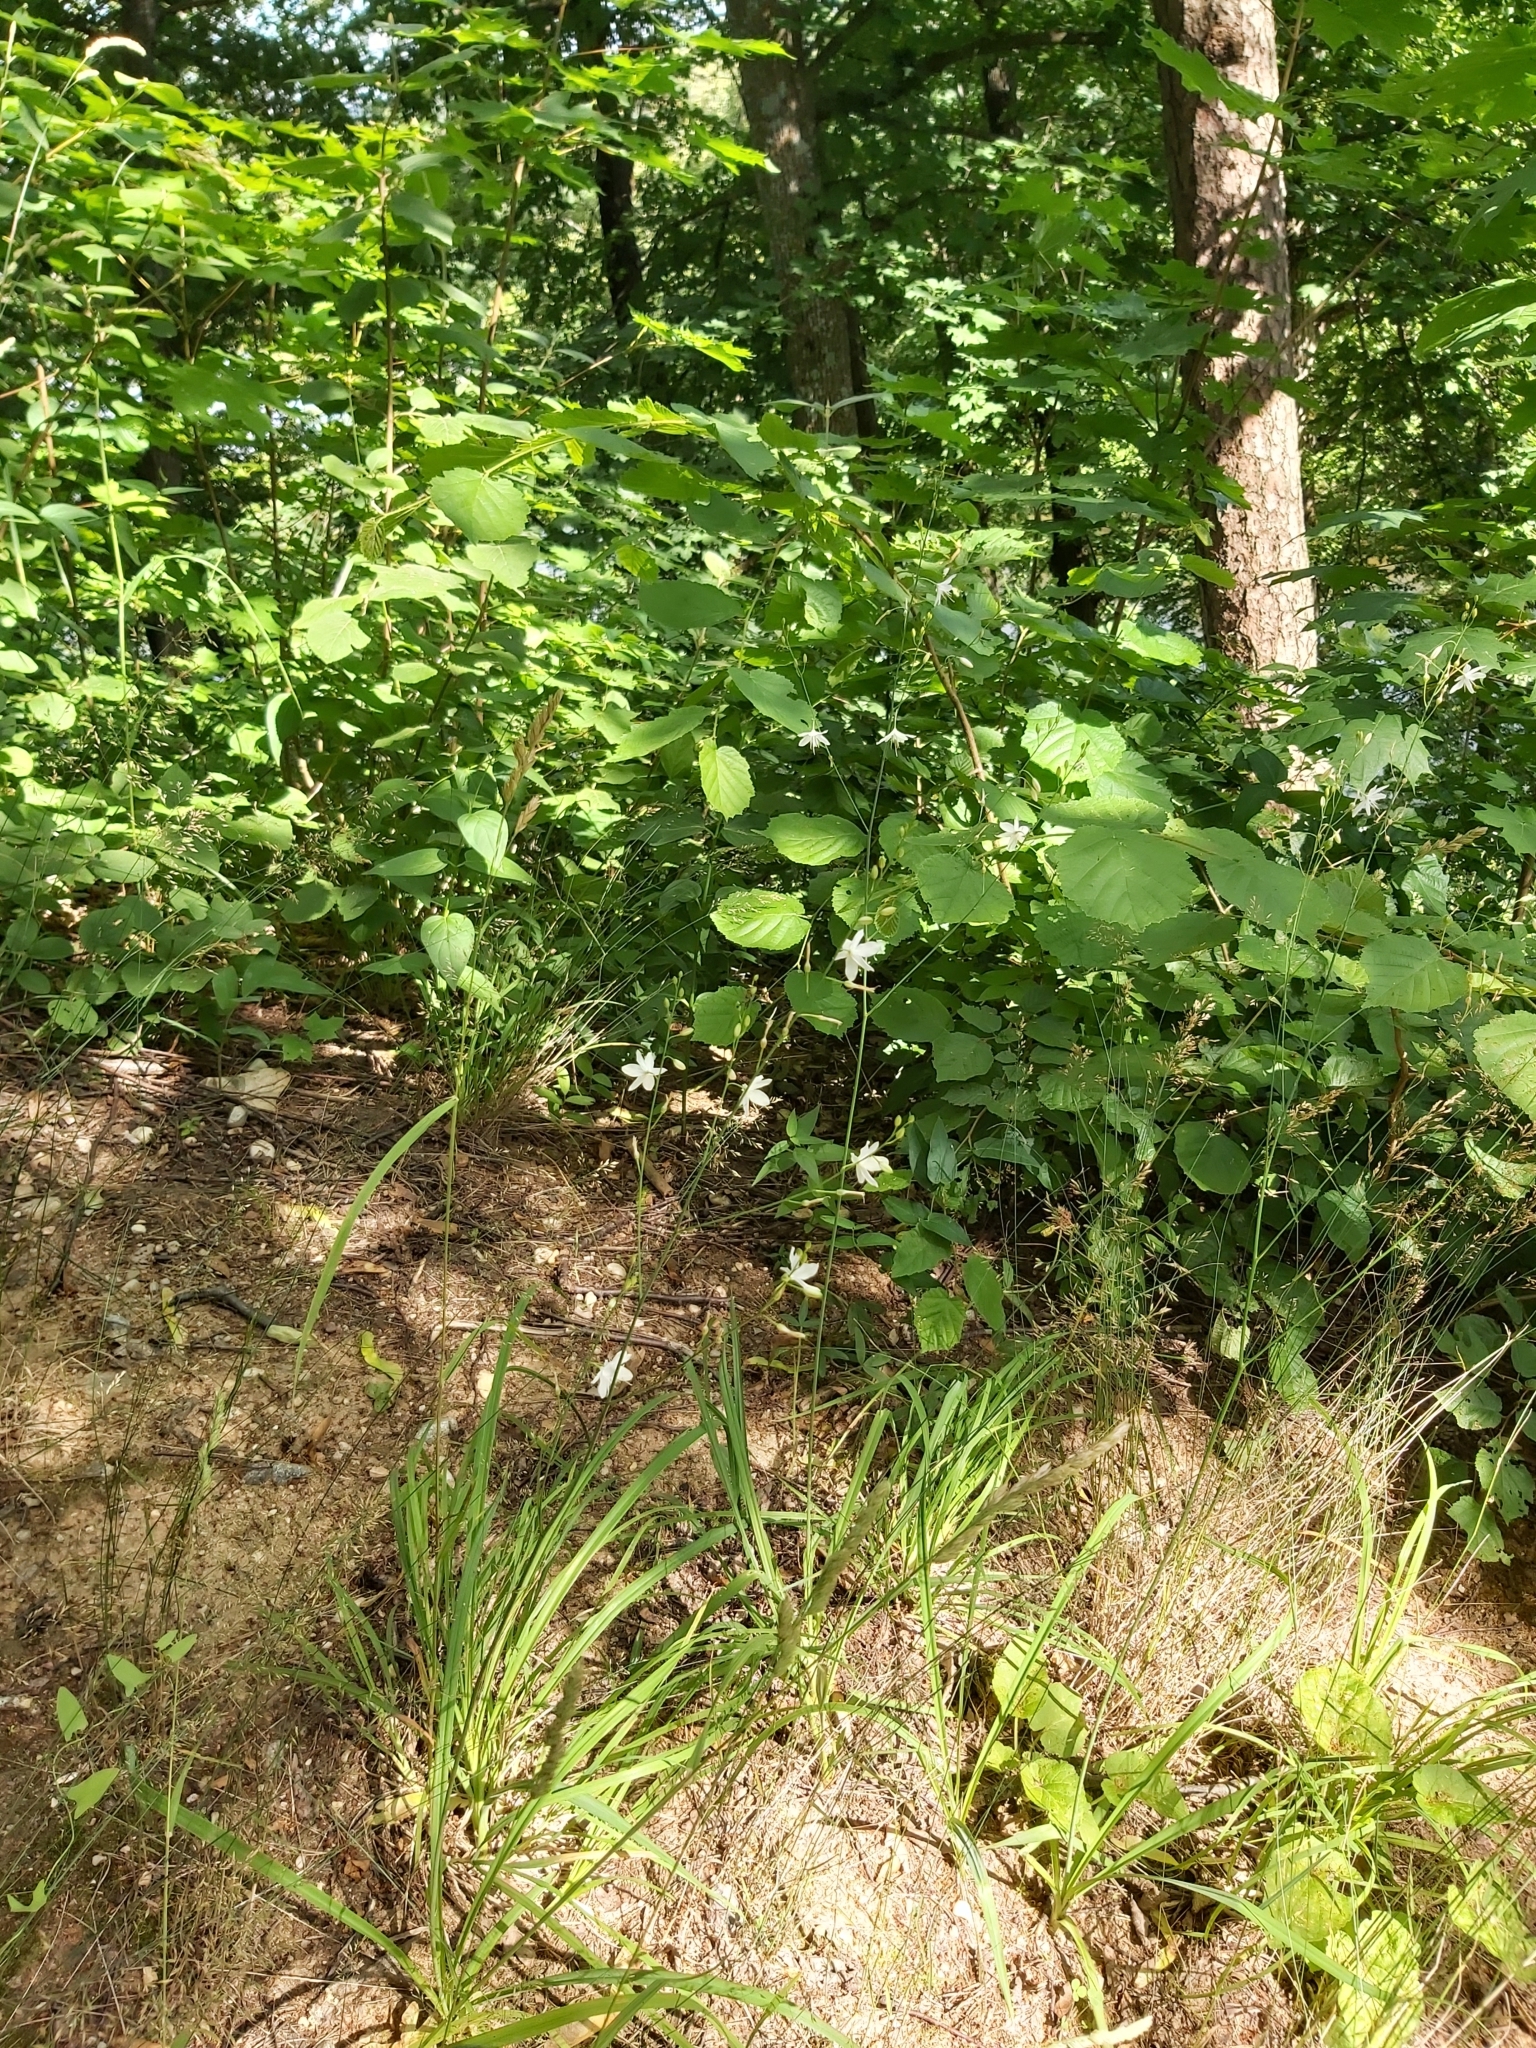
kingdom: Plantae
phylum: Tracheophyta
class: Liliopsida
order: Asparagales
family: Asparagaceae
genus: Anthericum
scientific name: Anthericum ramosum
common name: Branched st. bernard's-lily
